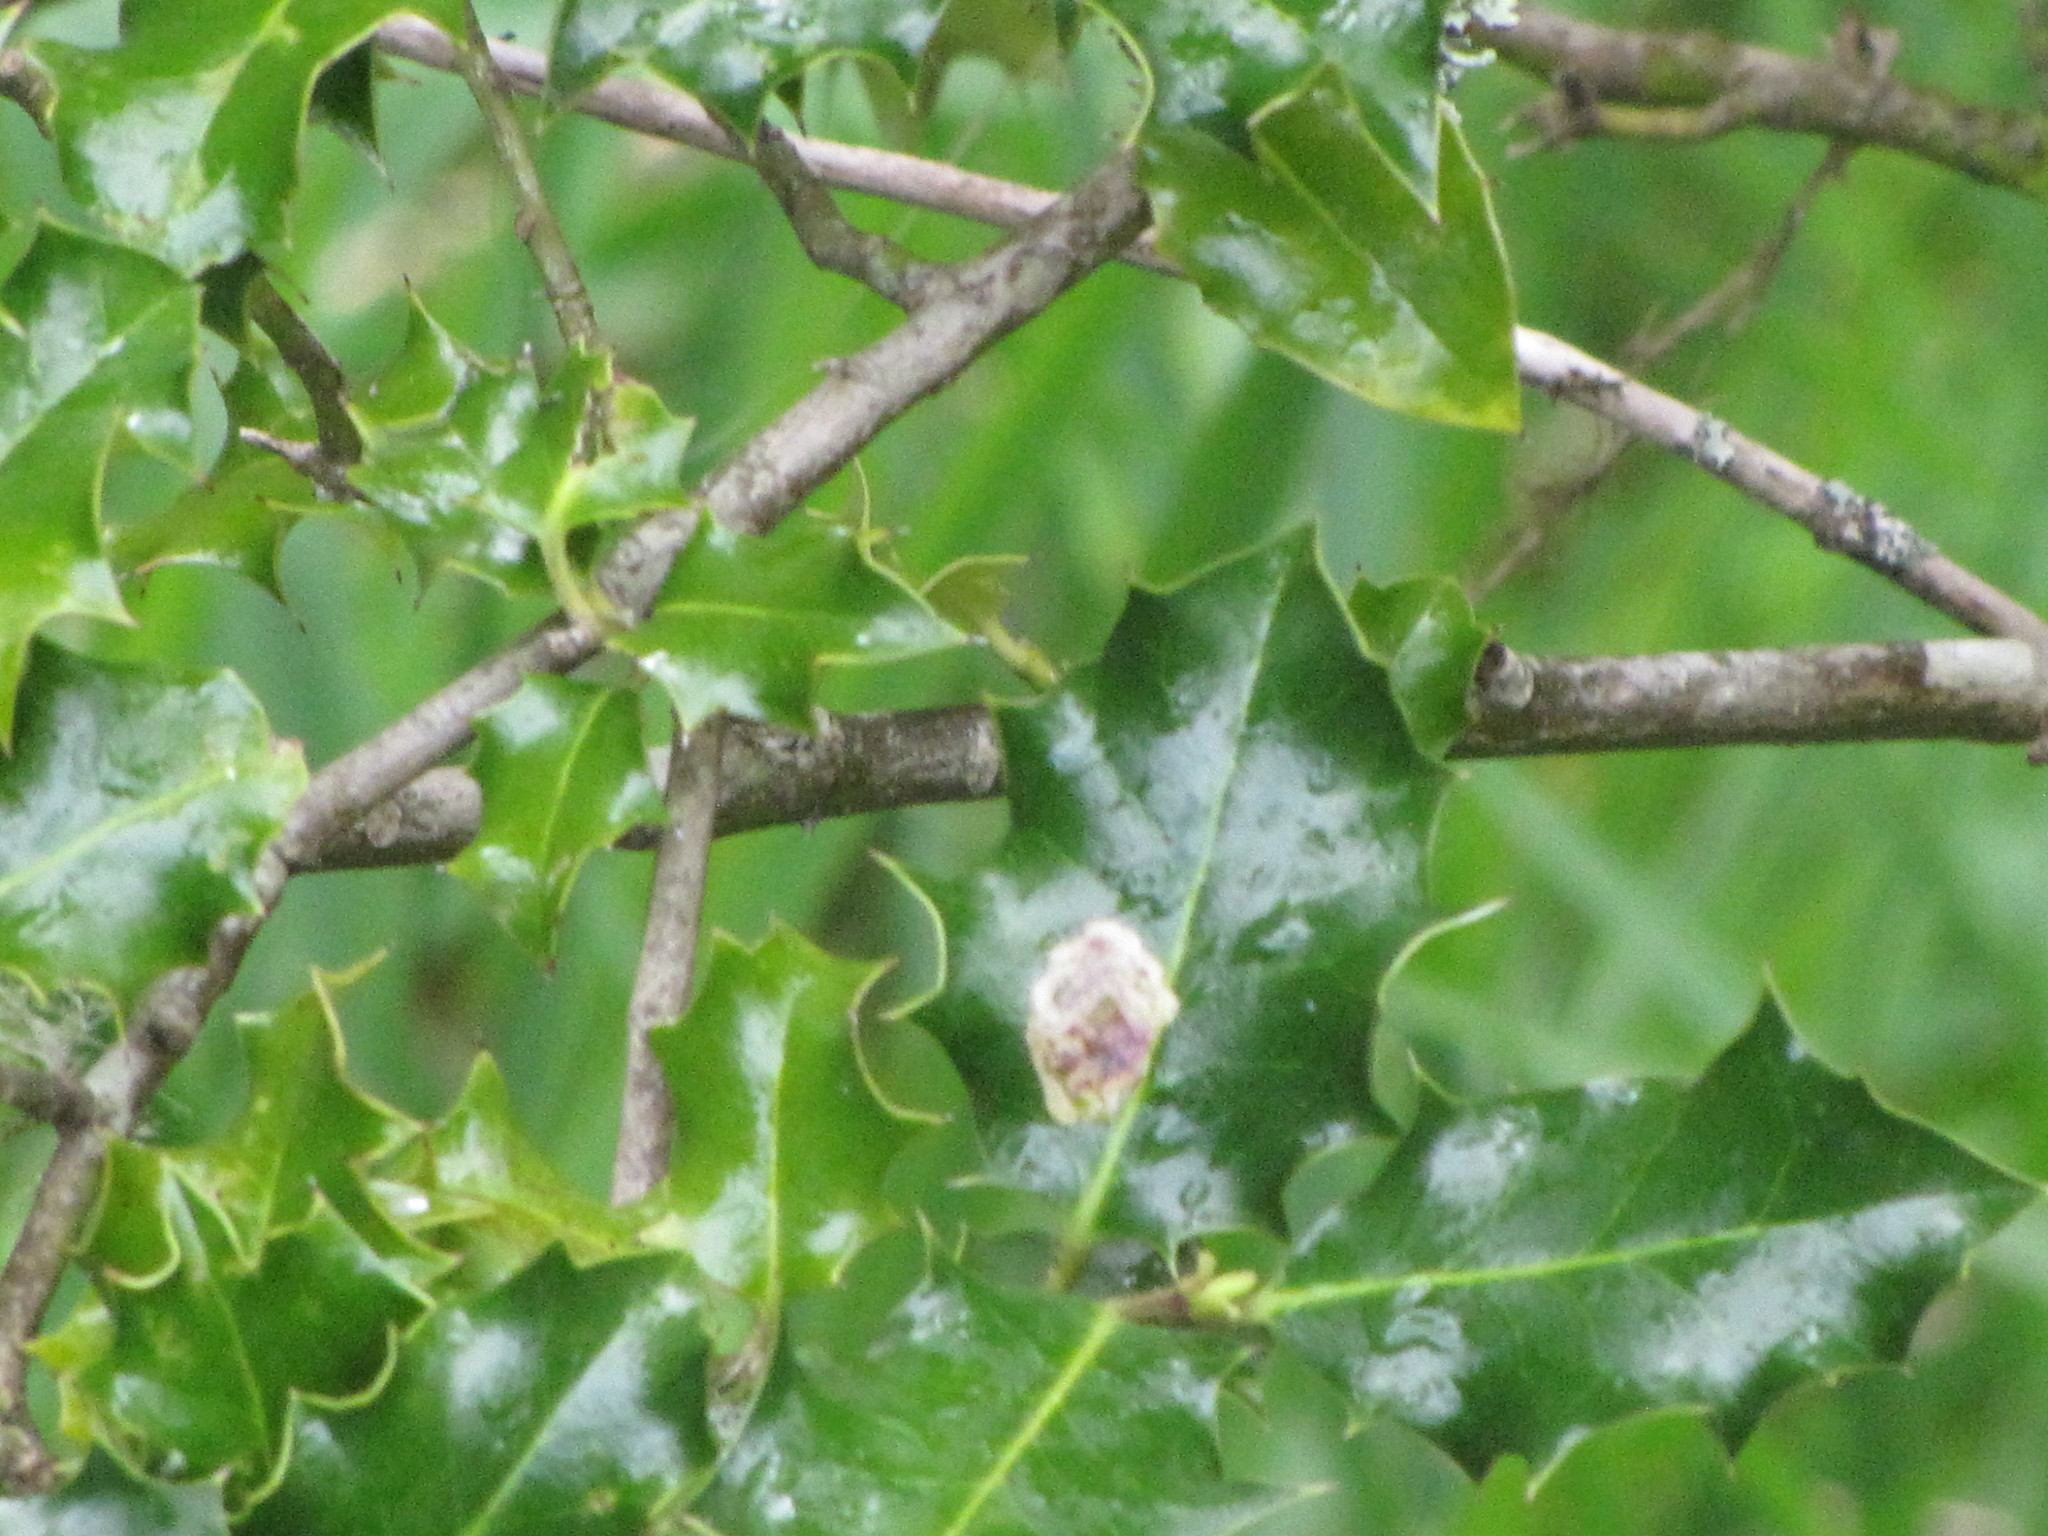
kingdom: Plantae
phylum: Tracheophyta
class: Magnoliopsida
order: Aquifoliales
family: Aquifoliaceae
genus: Ilex
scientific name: Ilex aquifolium
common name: English holly
